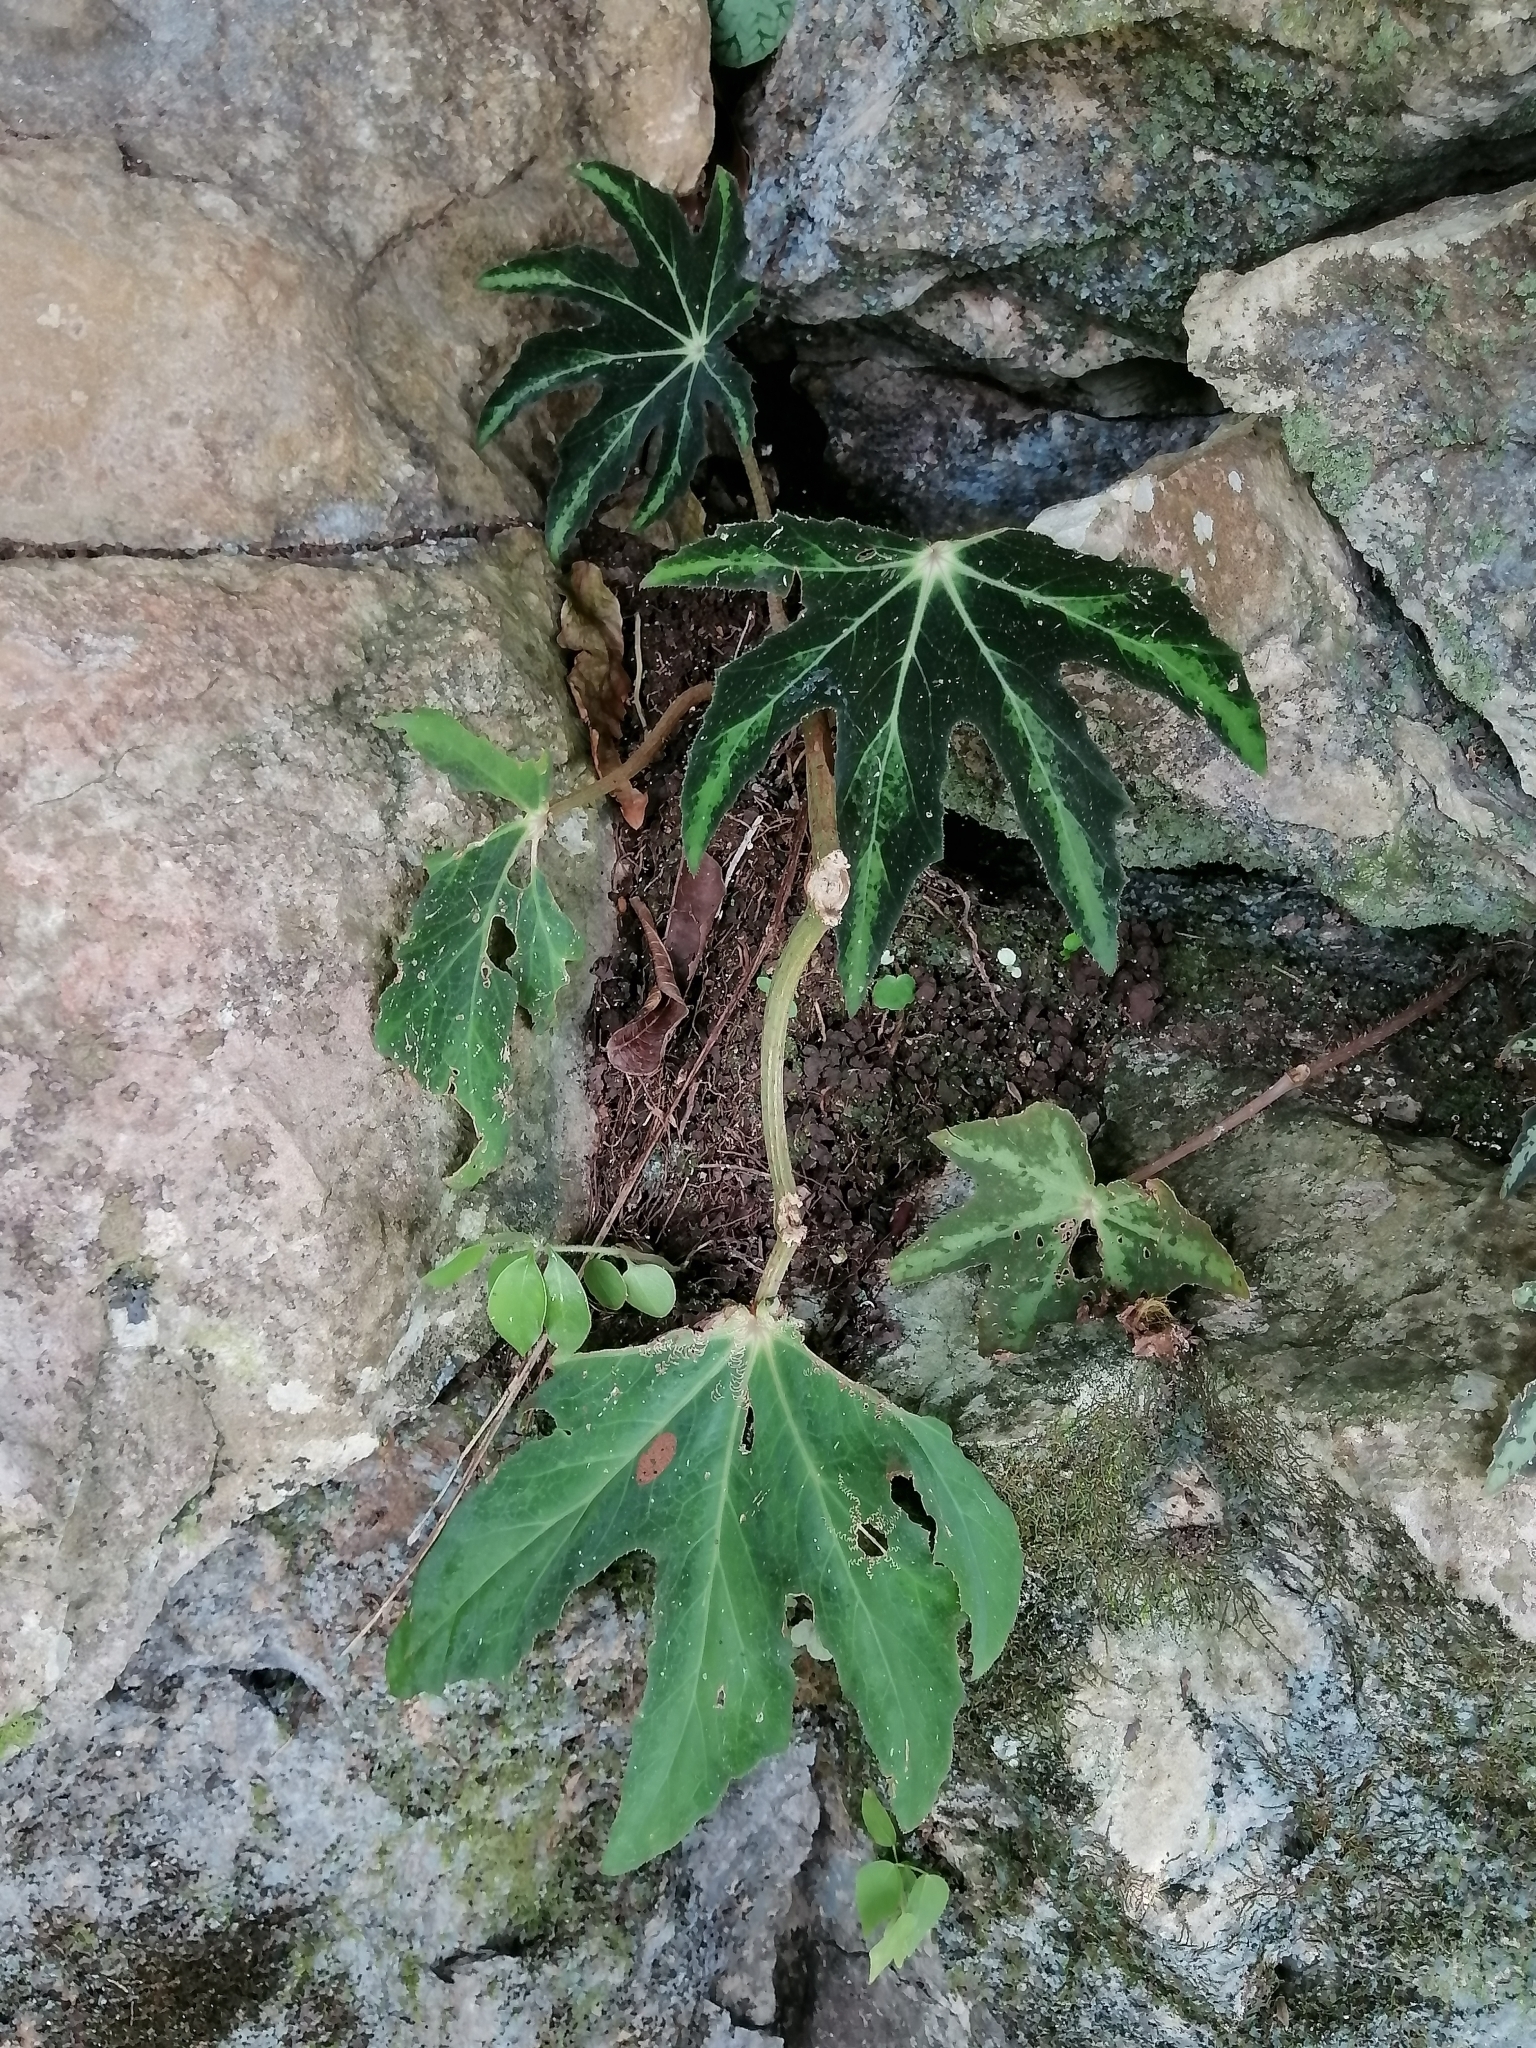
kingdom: Plantae
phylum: Tracheophyta
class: Magnoliopsida
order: Cucurbitales
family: Begoniaceae
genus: Begonia
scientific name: Begonia heracleifolia
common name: Star begonia
